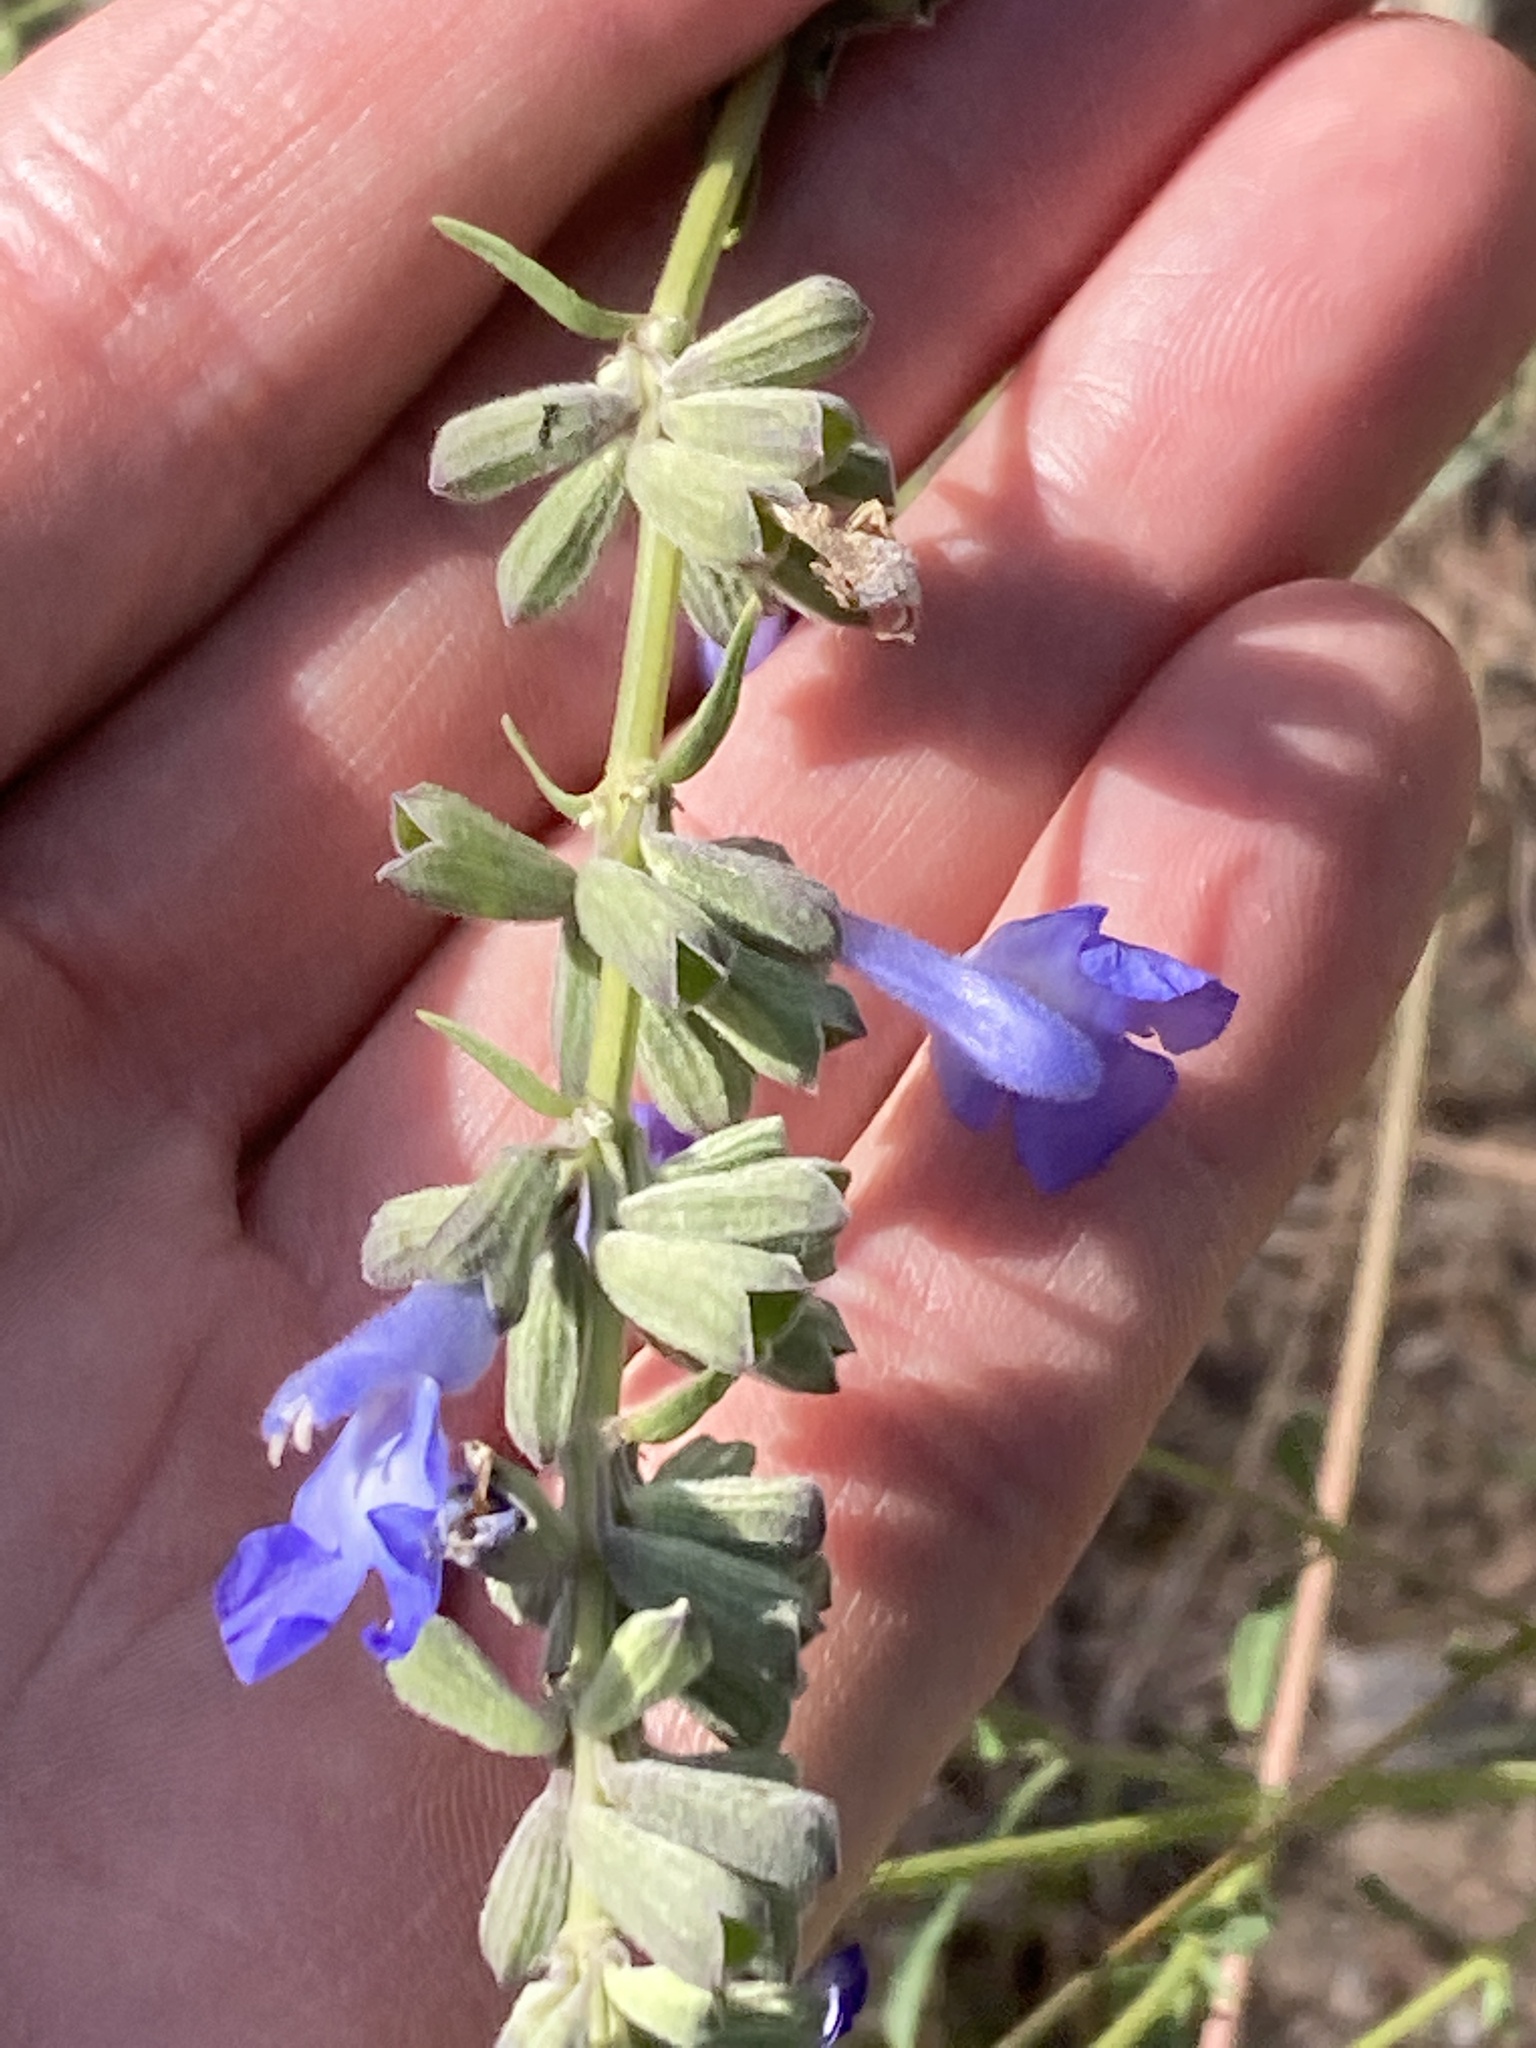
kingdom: Plantae
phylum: Tracheophyta
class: Magnoliopsida
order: Lamiales
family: Lamiaceae
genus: Salvia
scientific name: Salvia azurea
